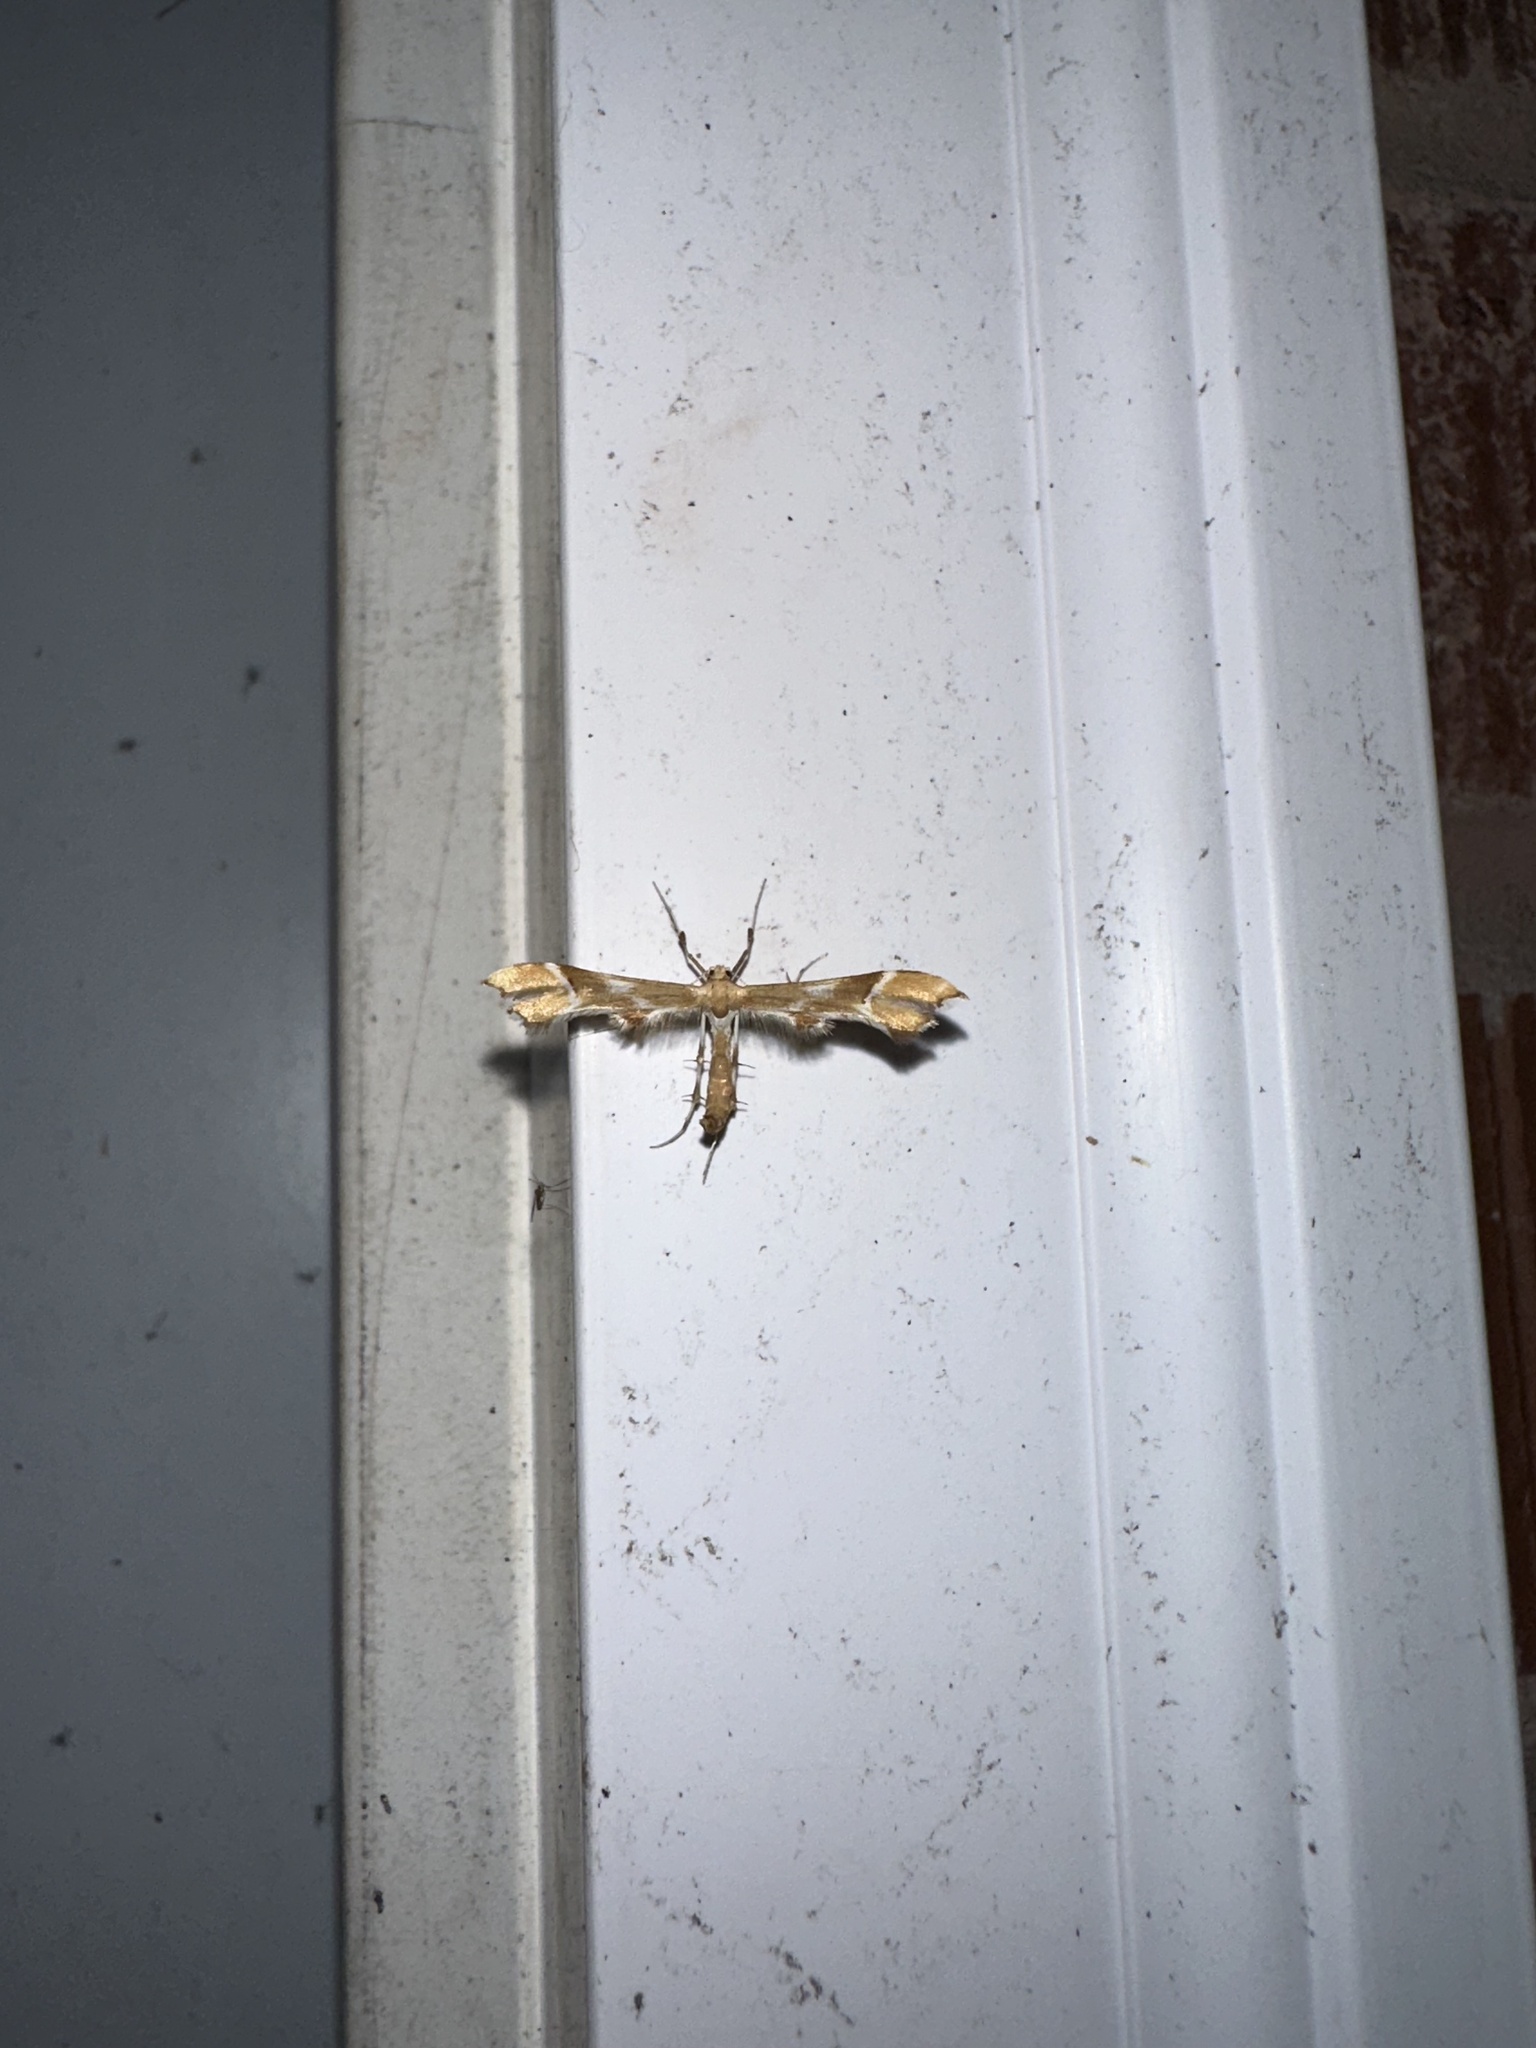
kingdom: Animalia
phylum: Arthropoda
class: Insecta
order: Lepidoptera
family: Pterophoridae
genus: Cnaemidophorus
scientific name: Cnaemidophorus rhododactyla
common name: Rose plume
